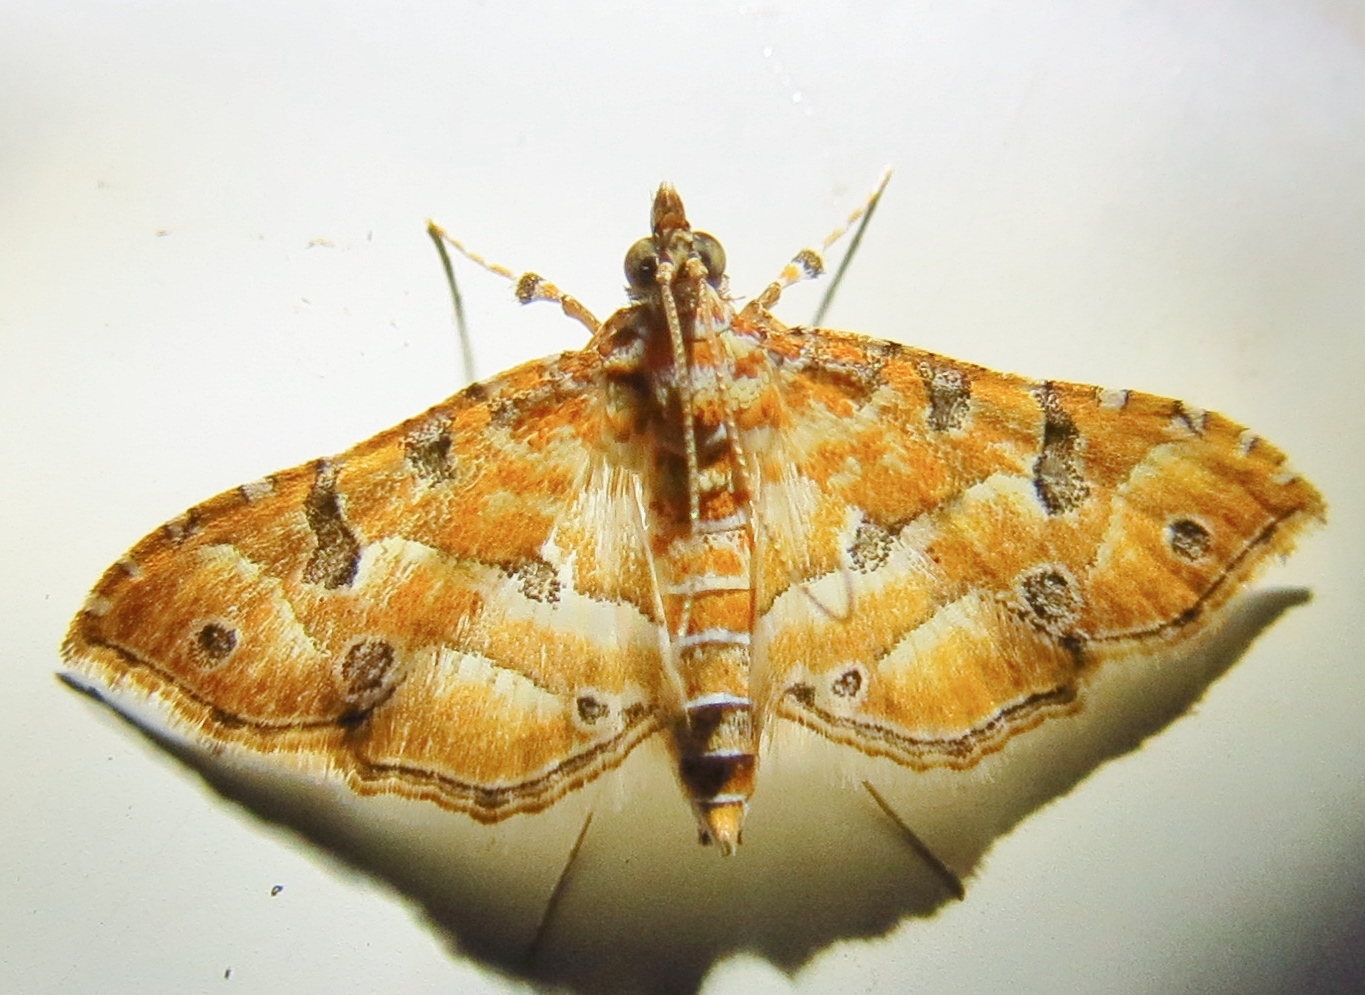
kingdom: Animalia
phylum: Arthropoda
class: Insecta
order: Lepidoptera
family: Crambidae
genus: Ommatospila
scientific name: Ommatospila narcaeusalis
